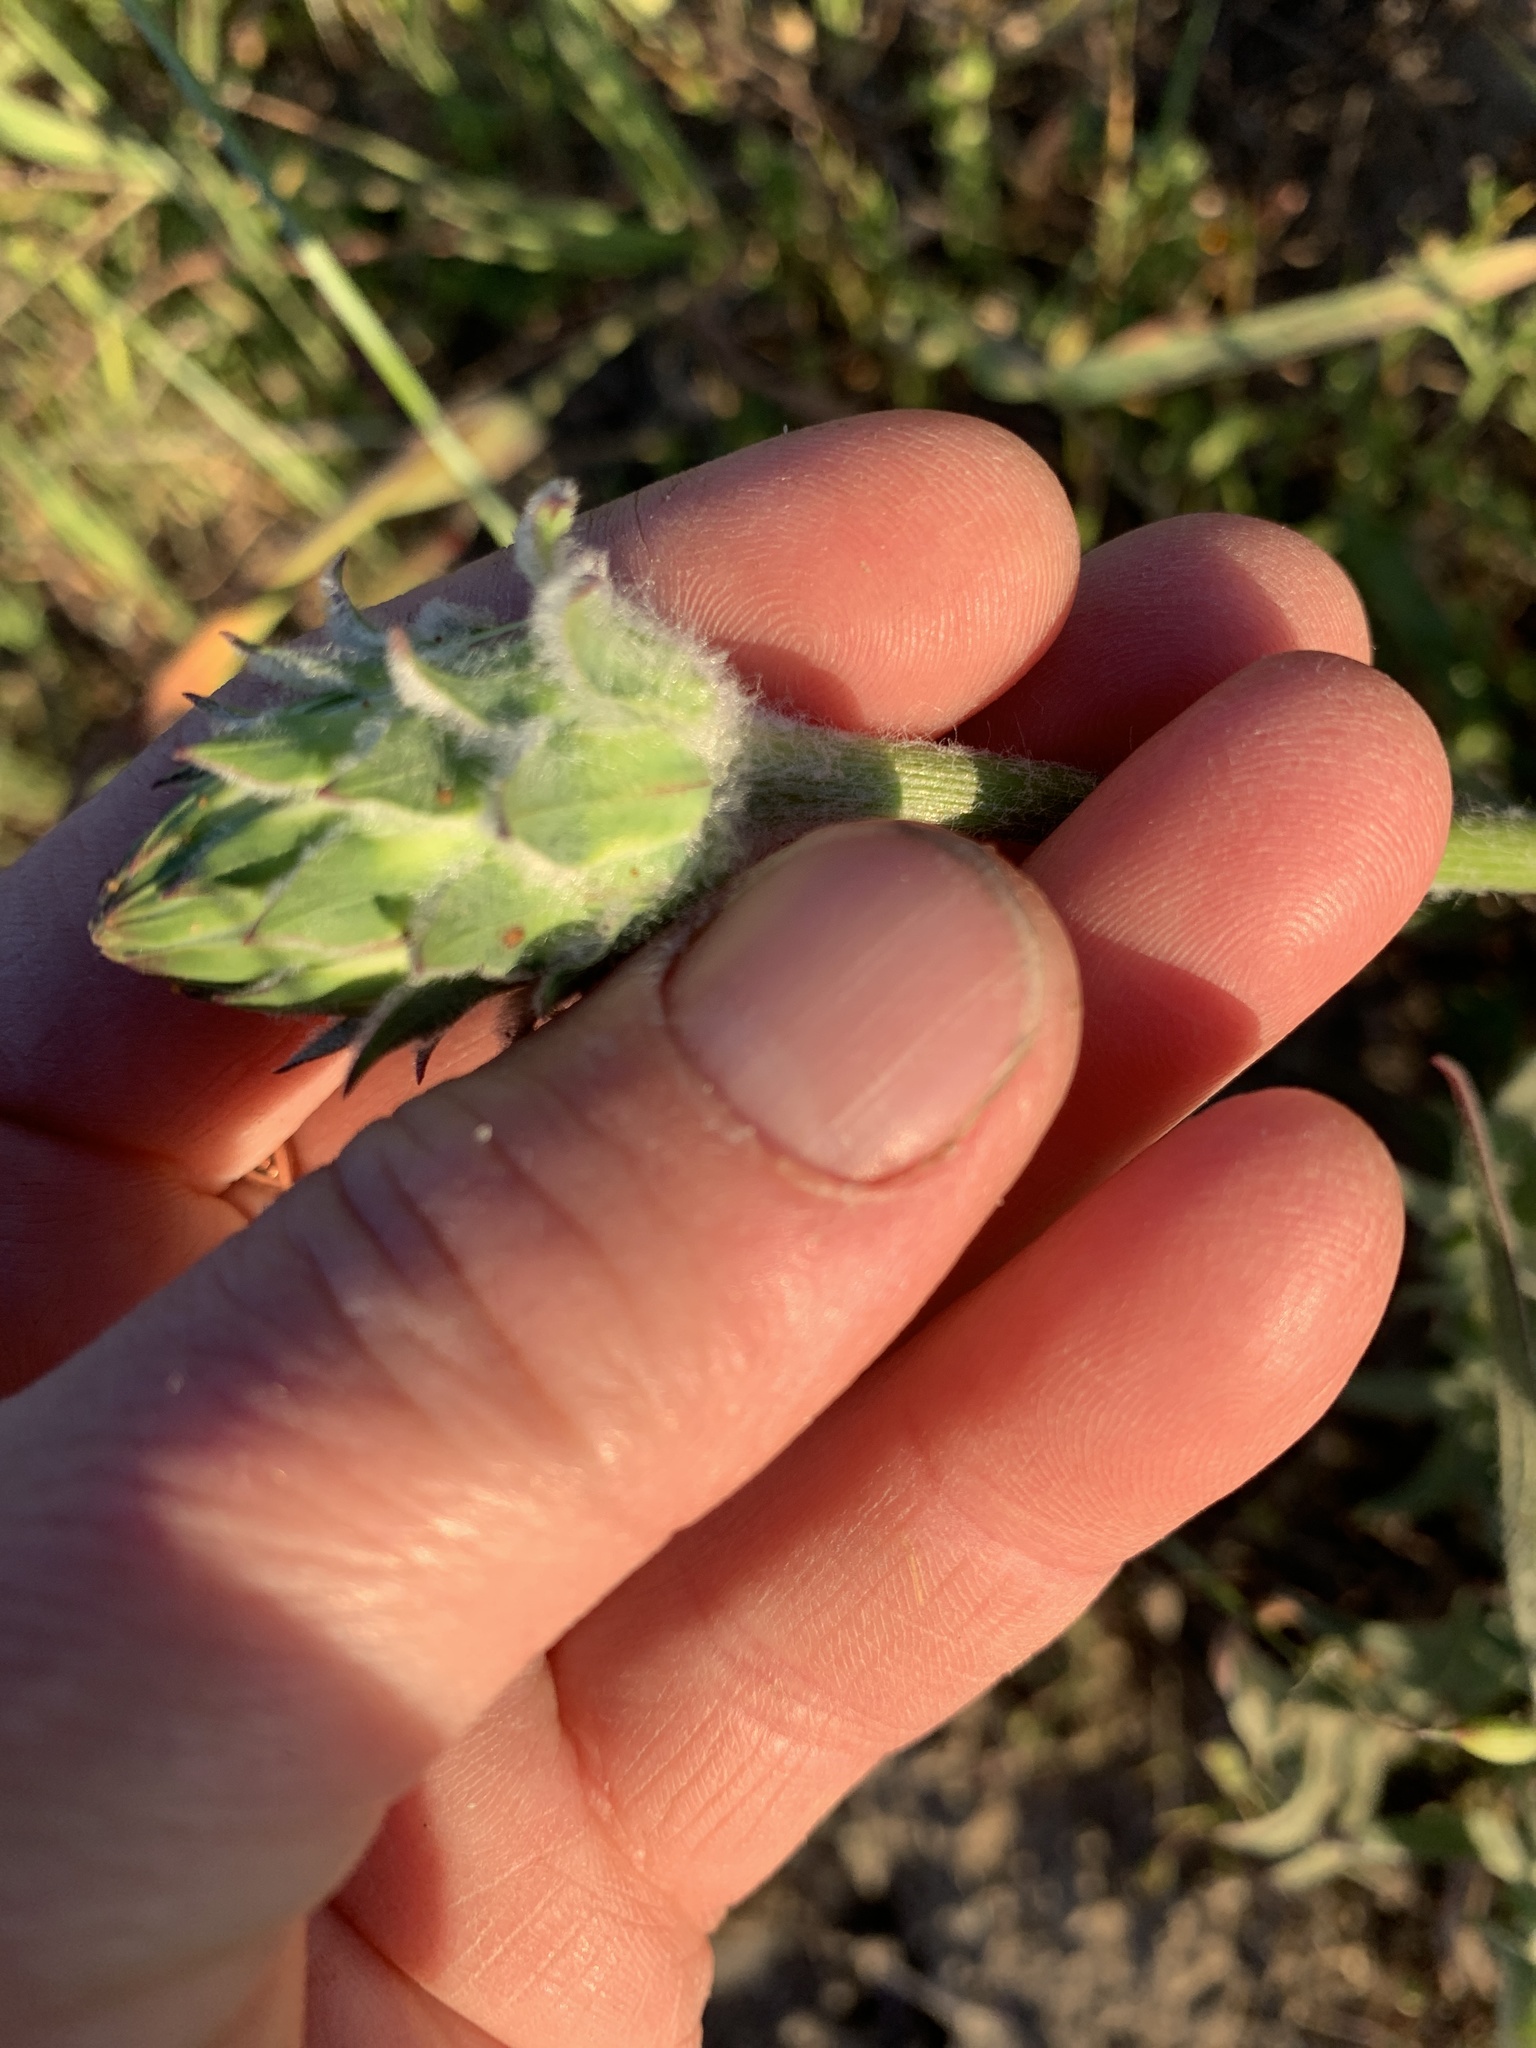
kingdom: Plantae
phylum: Tracheophyta
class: Magnoliopsida
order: Asterales
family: Asteraceae
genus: Agoseris
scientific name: Agoseris grandiflora
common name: Grassland agoseris
